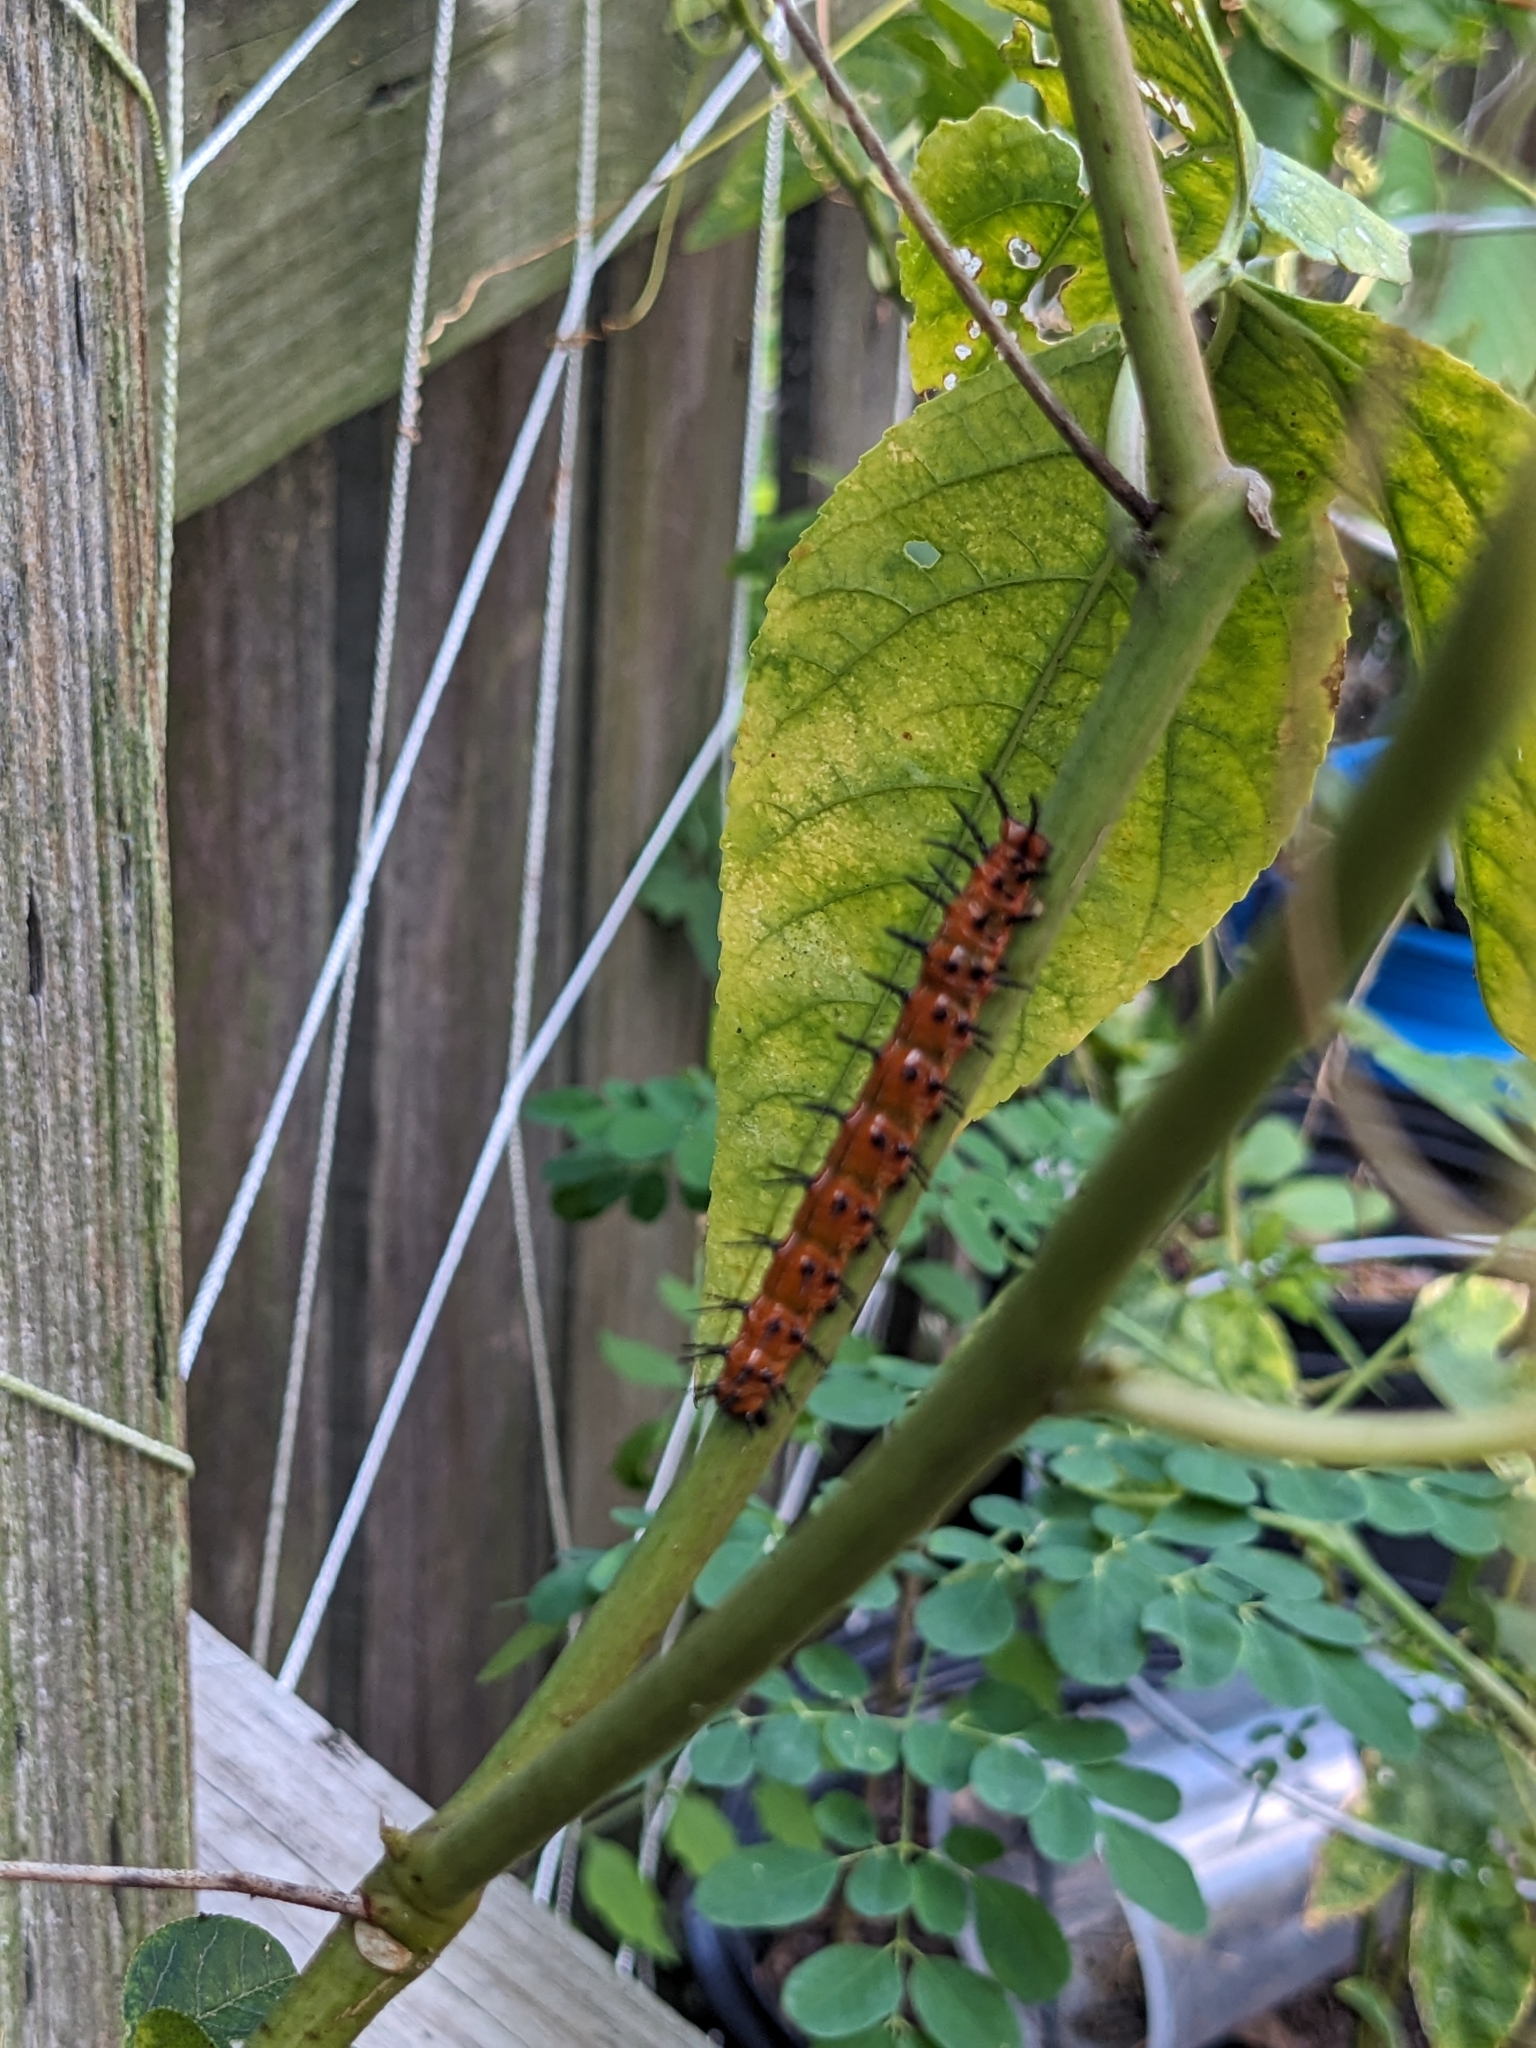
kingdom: Animalia
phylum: Arthropoda
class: Insecta
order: Lepidoptera
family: Nymphalidae
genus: Dione
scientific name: Dione vanillae
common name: Gulf fritillary
